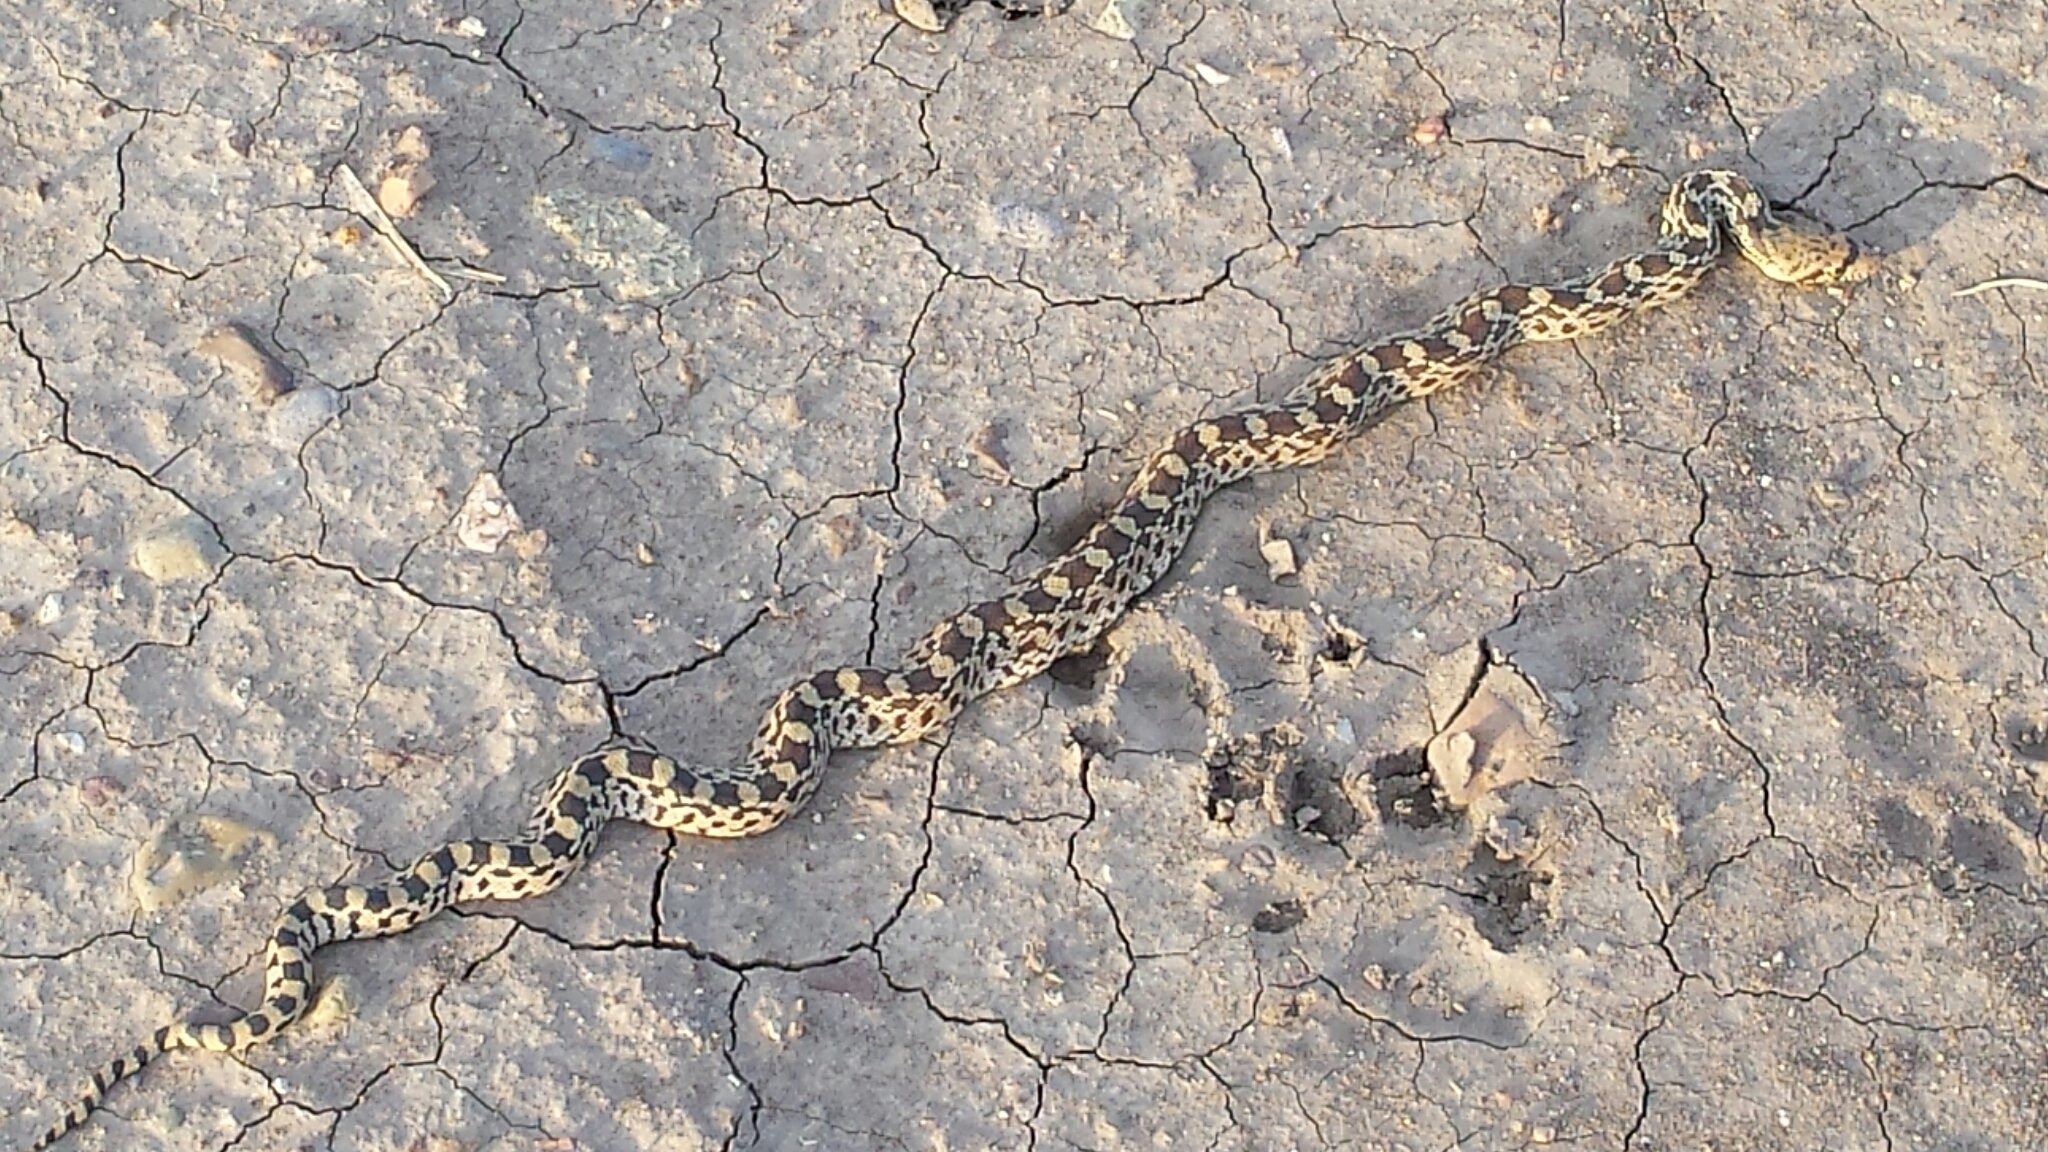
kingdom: Animalia
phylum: Chordata
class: Squamata
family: Colubridae
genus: Pituophis
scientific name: Pituophis catenifer
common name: Gopher snake
